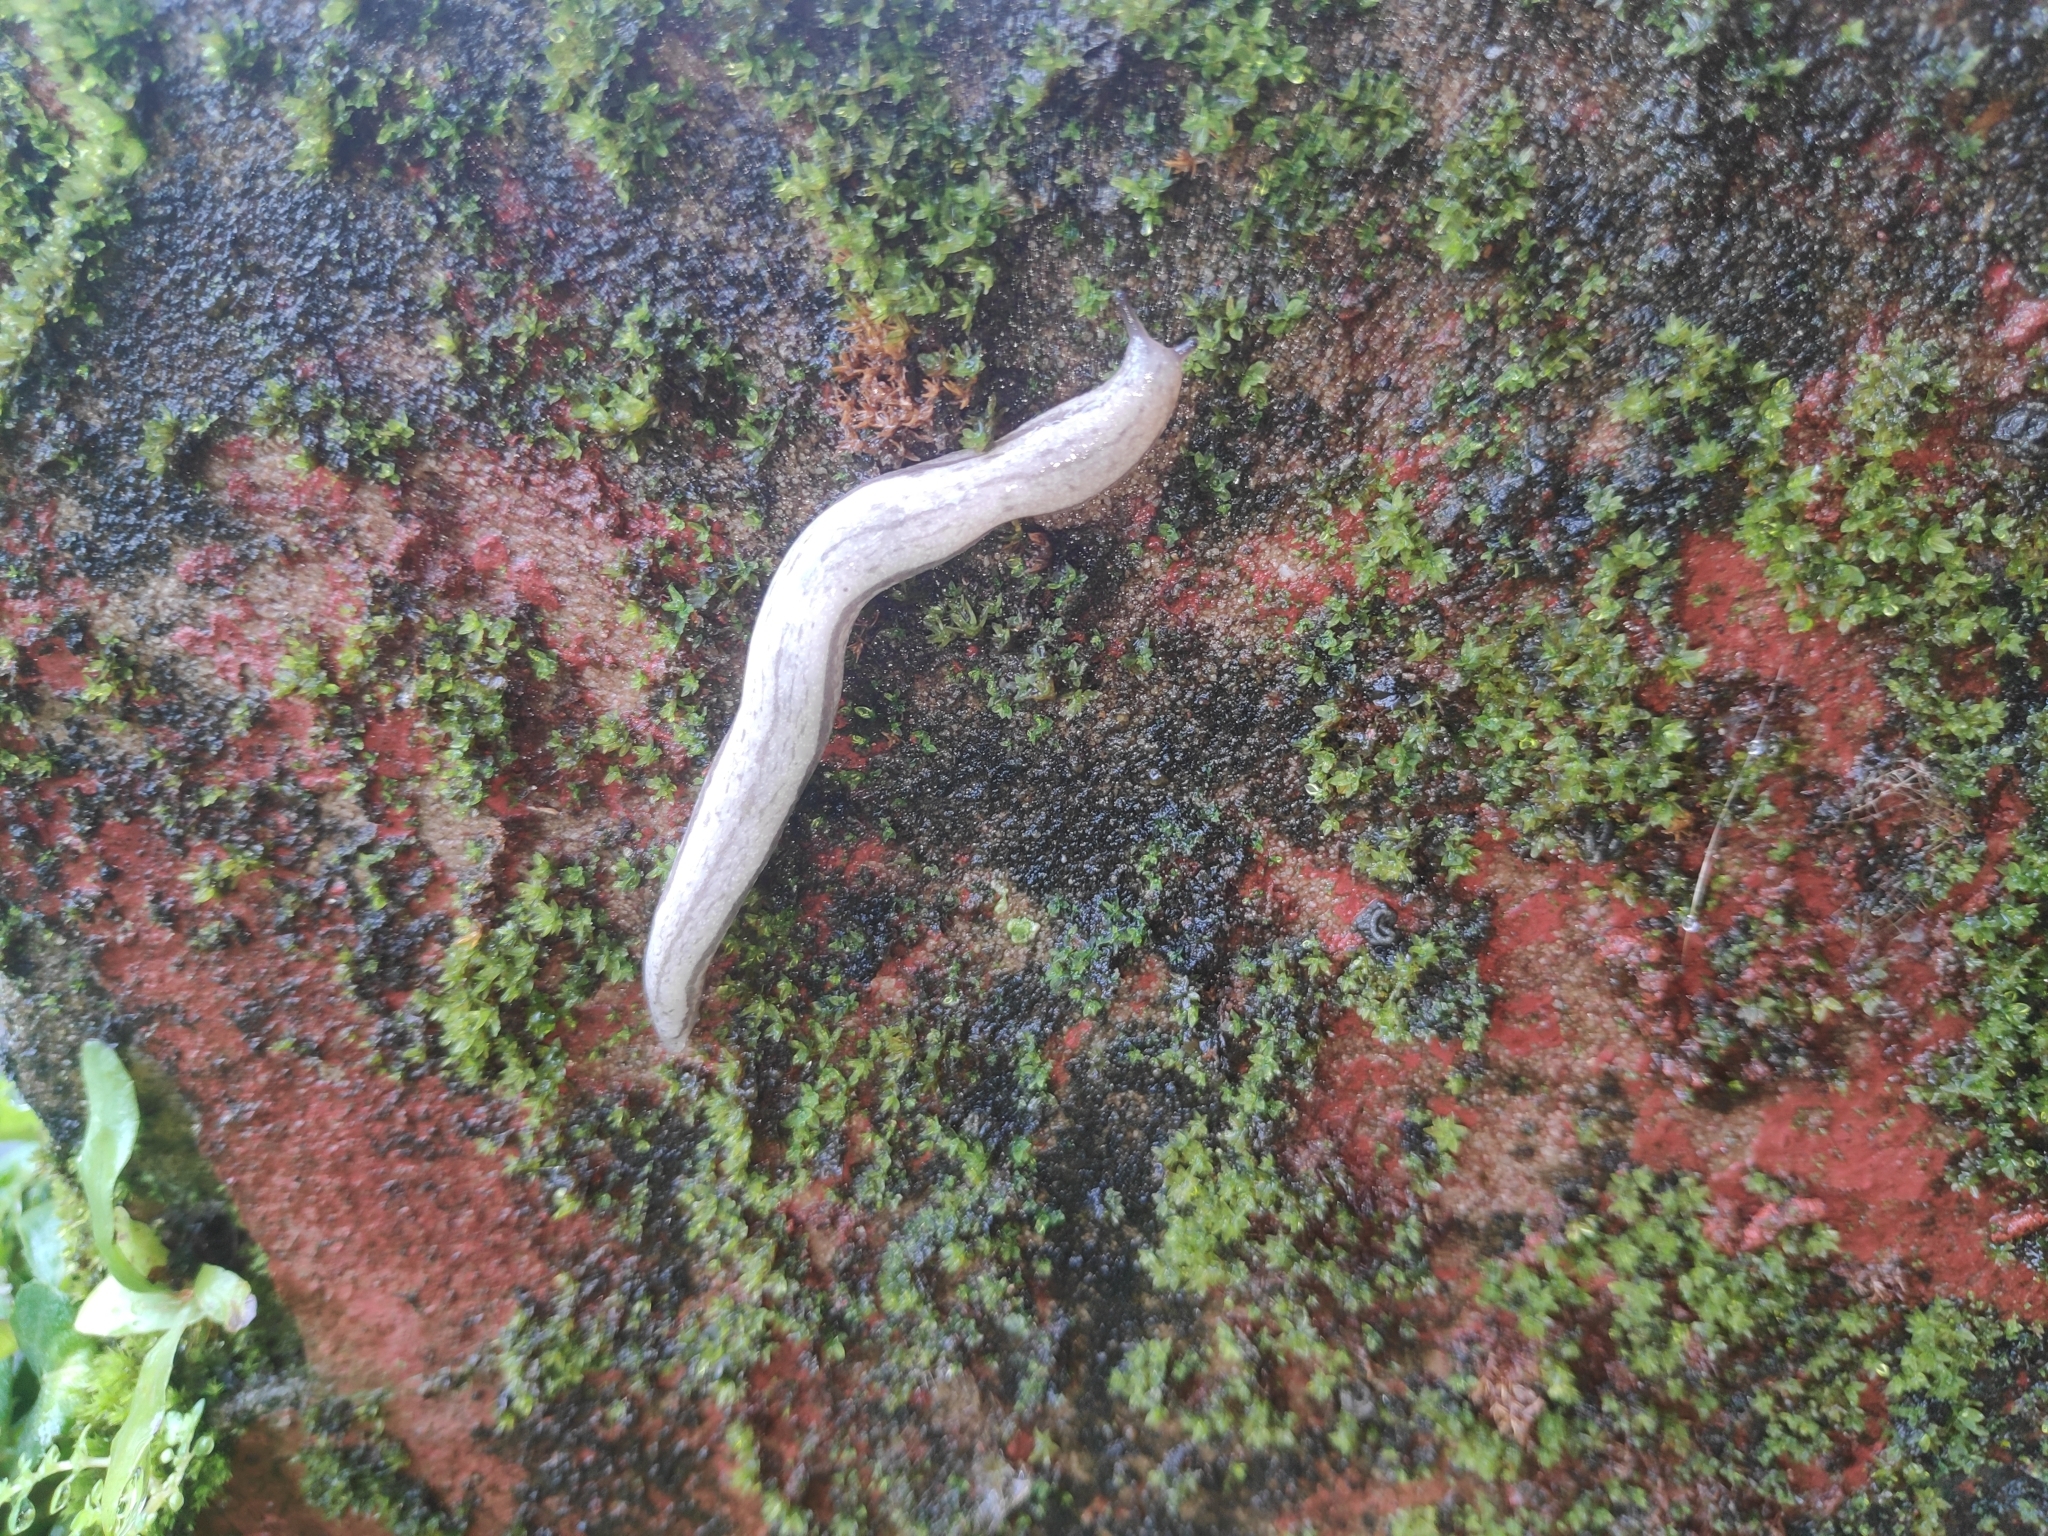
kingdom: Animalia
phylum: Mollusca
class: Gastropoda
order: Stylommatophora
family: Philomycidae
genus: Meghimatium
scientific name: Meghimatium bilineatum
